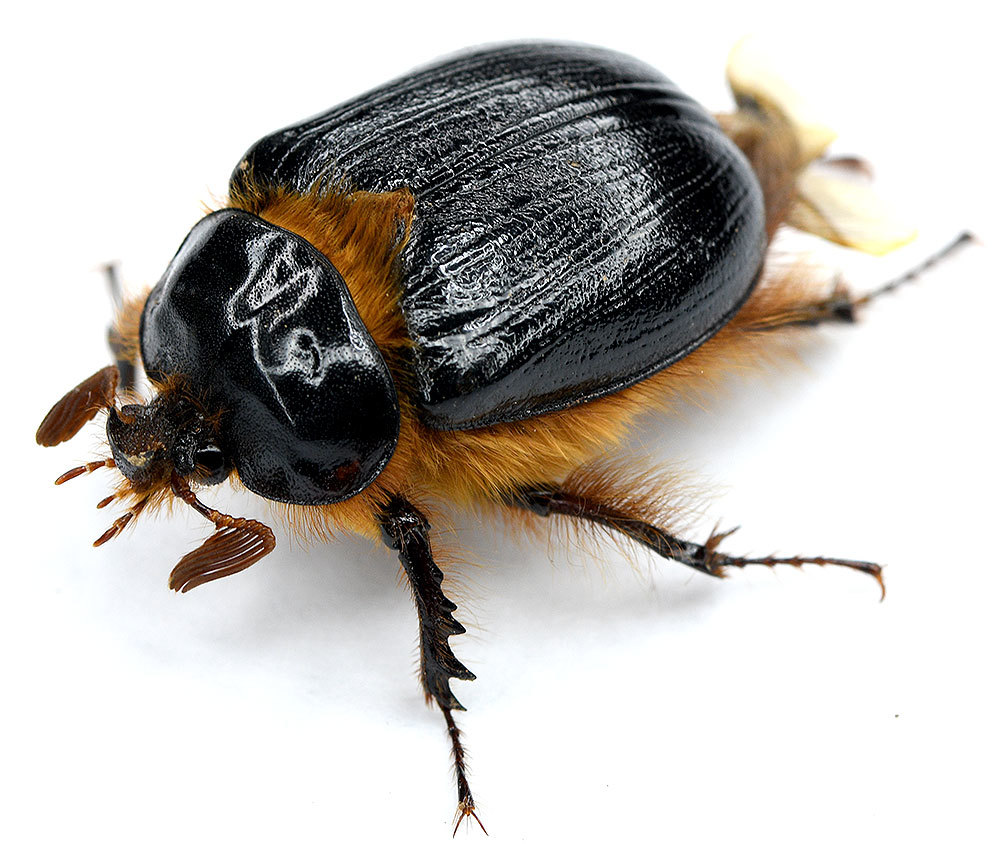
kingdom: Animalia
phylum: Arthropoda
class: Insecta
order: Coleoptera
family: Pleocomidae
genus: Pleocoma
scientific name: Pleocoma dubitabilis
